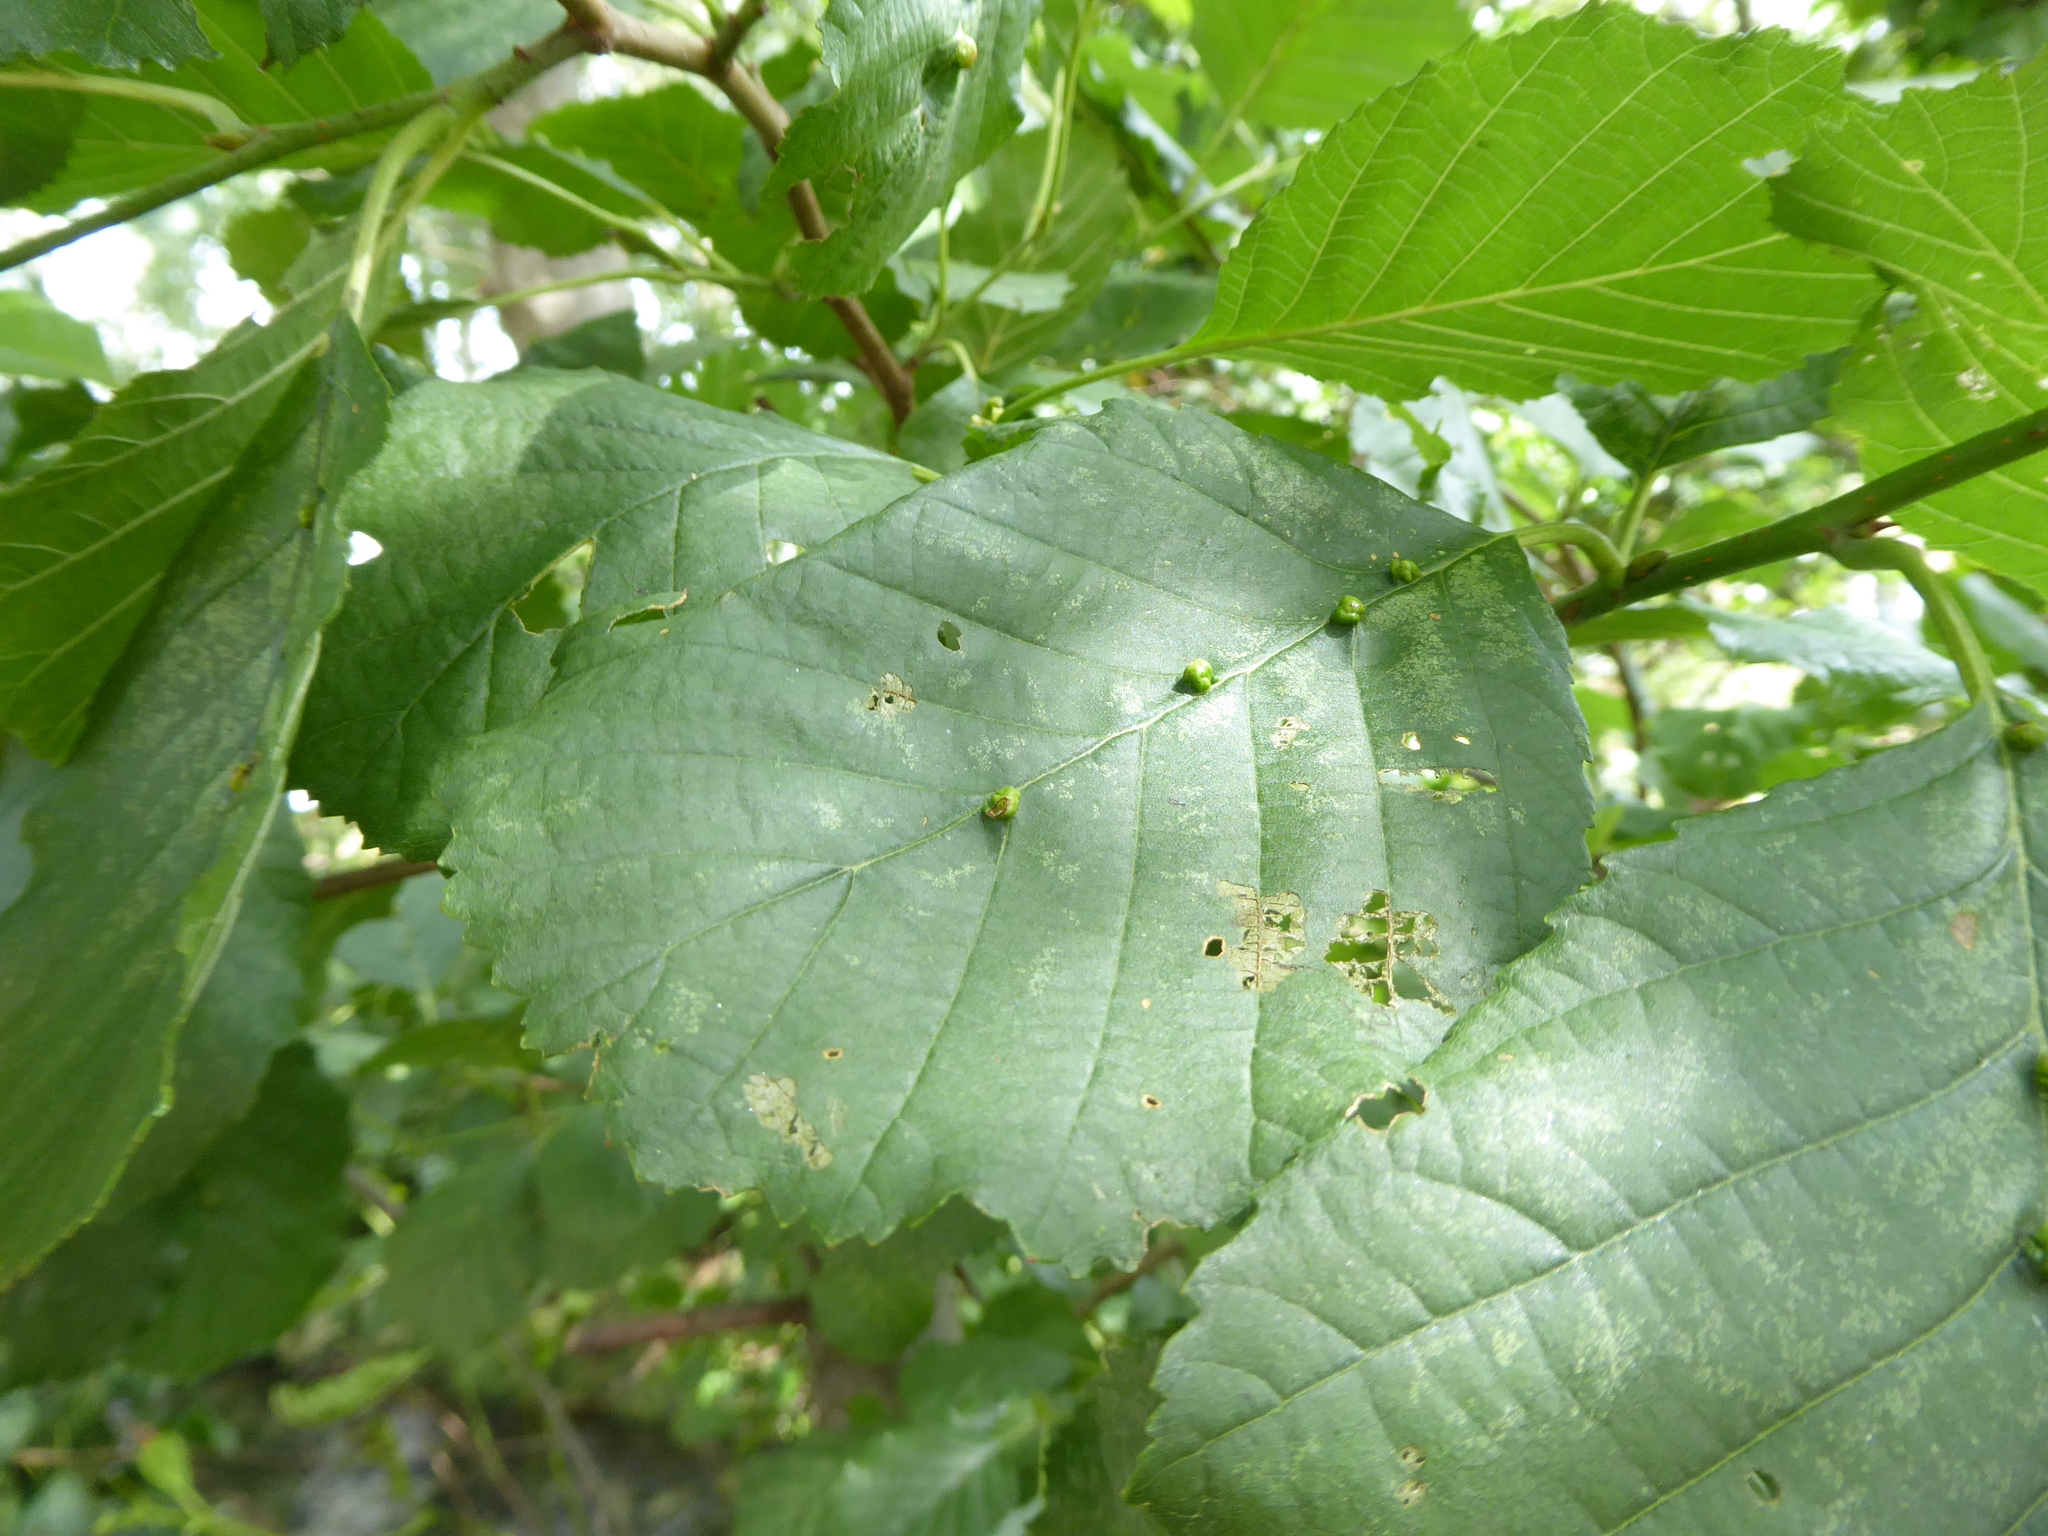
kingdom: Animalia
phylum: Arthropoda
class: Arachnida
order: Trombidiformes
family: Eriophyidae
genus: Eriophyes
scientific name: Eriophyes inangulis
